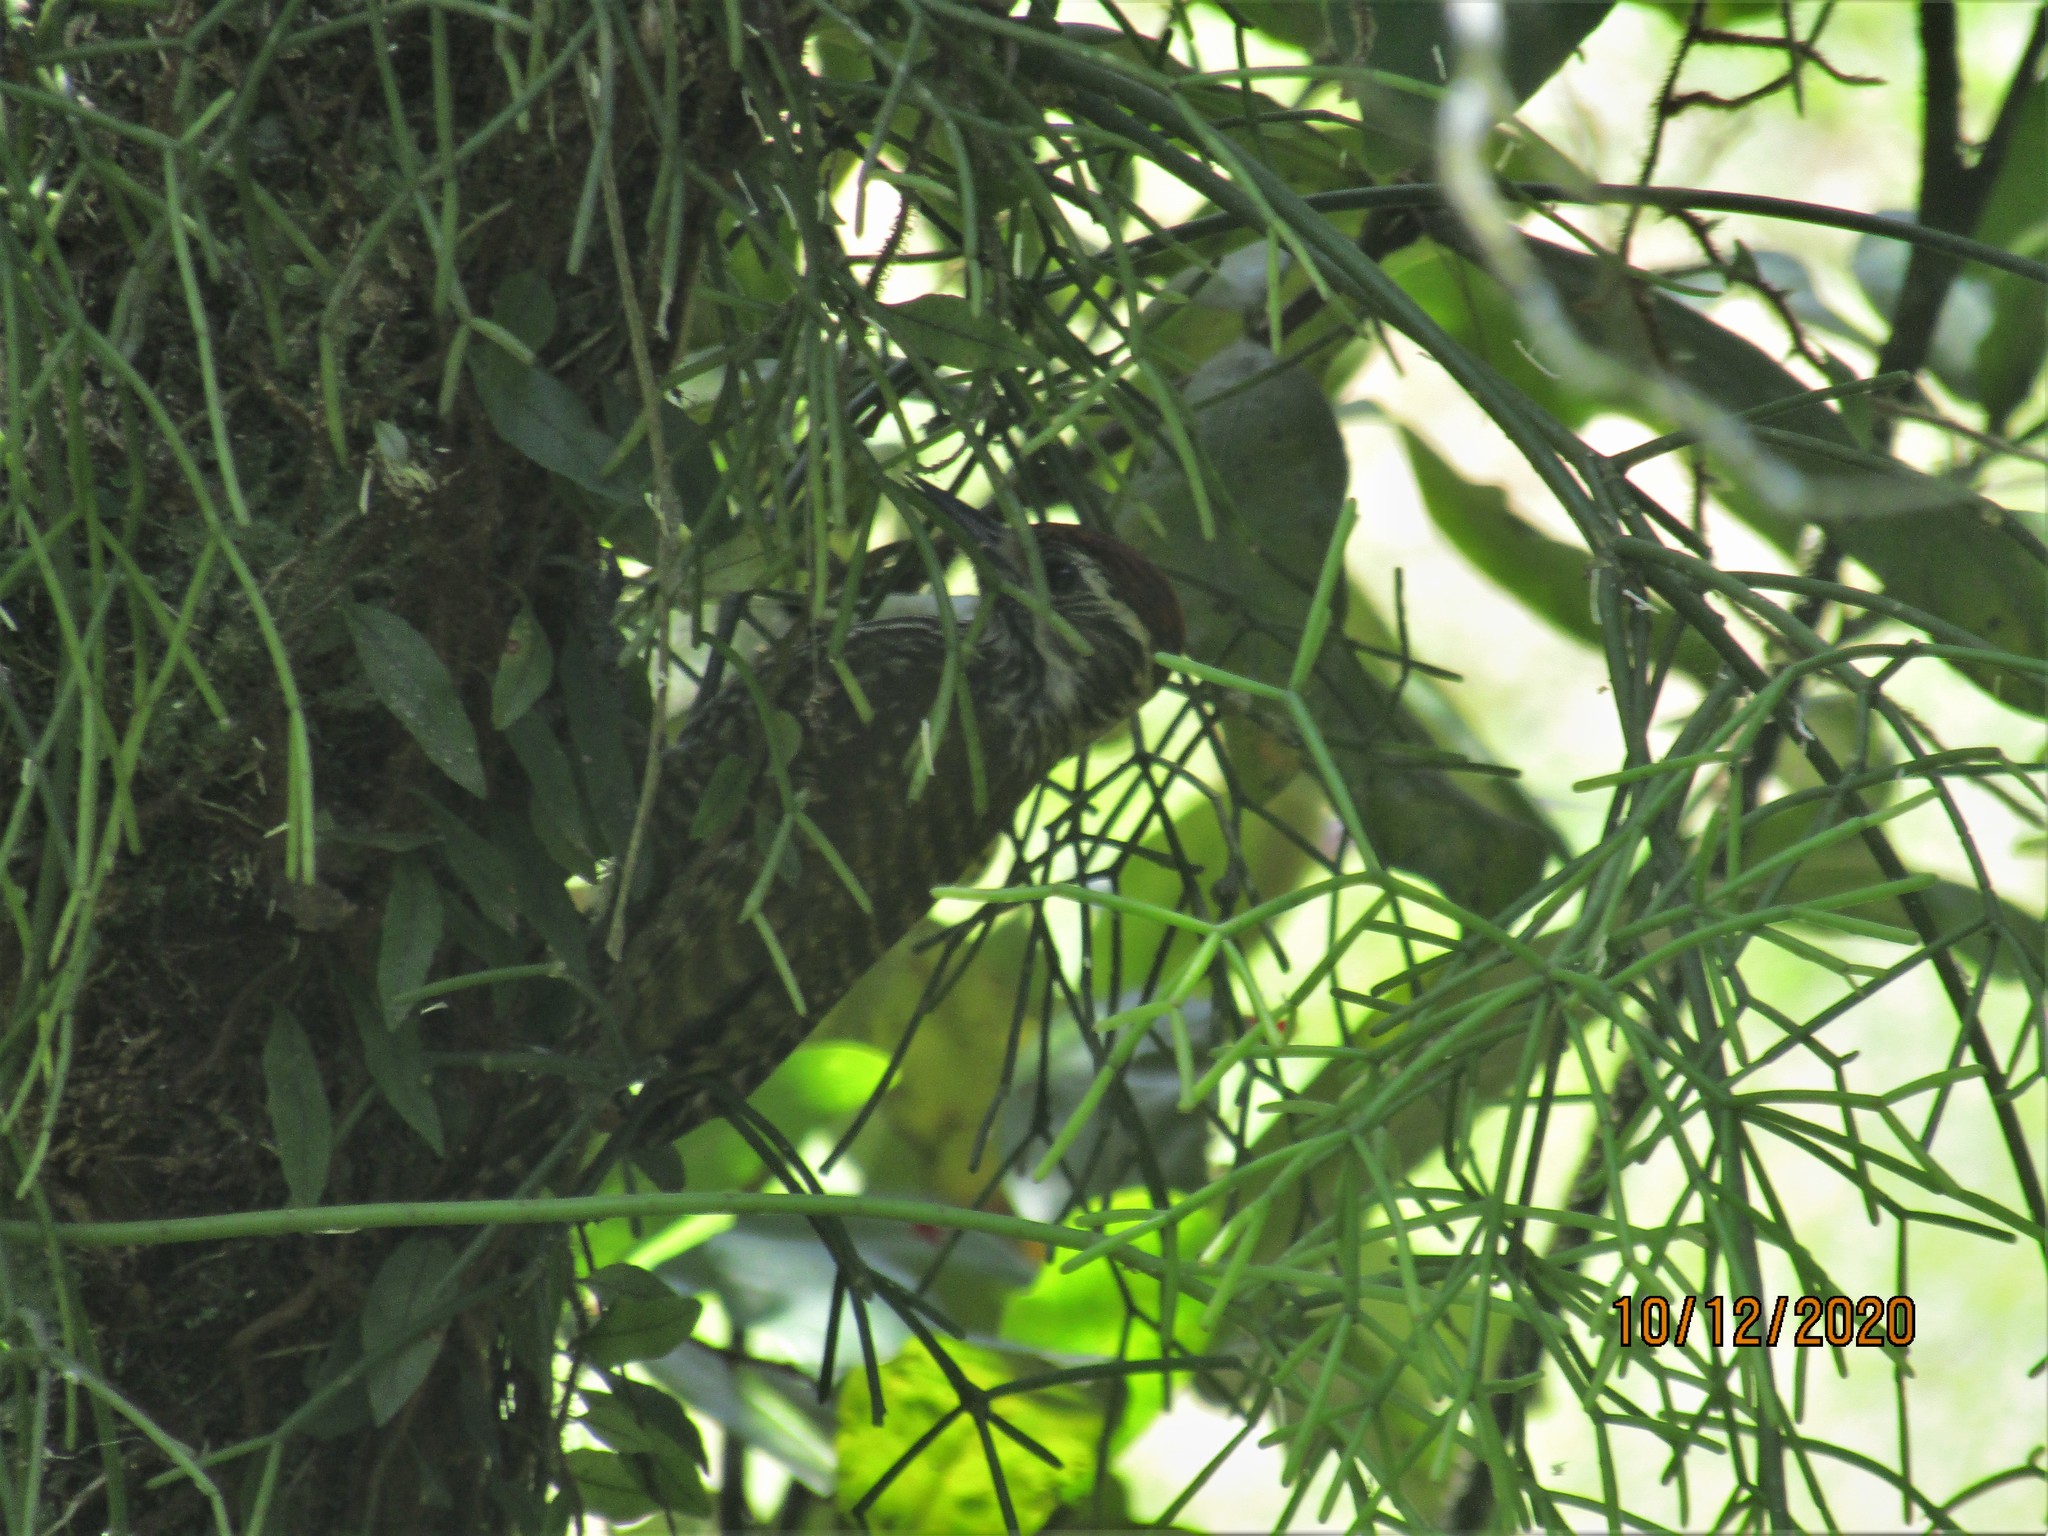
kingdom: Animalia
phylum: Chordata
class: Aves
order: Piciformes
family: Picidae
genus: Veniliornis
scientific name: Veniliornis spilogaster
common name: White-spotted woodpecker
